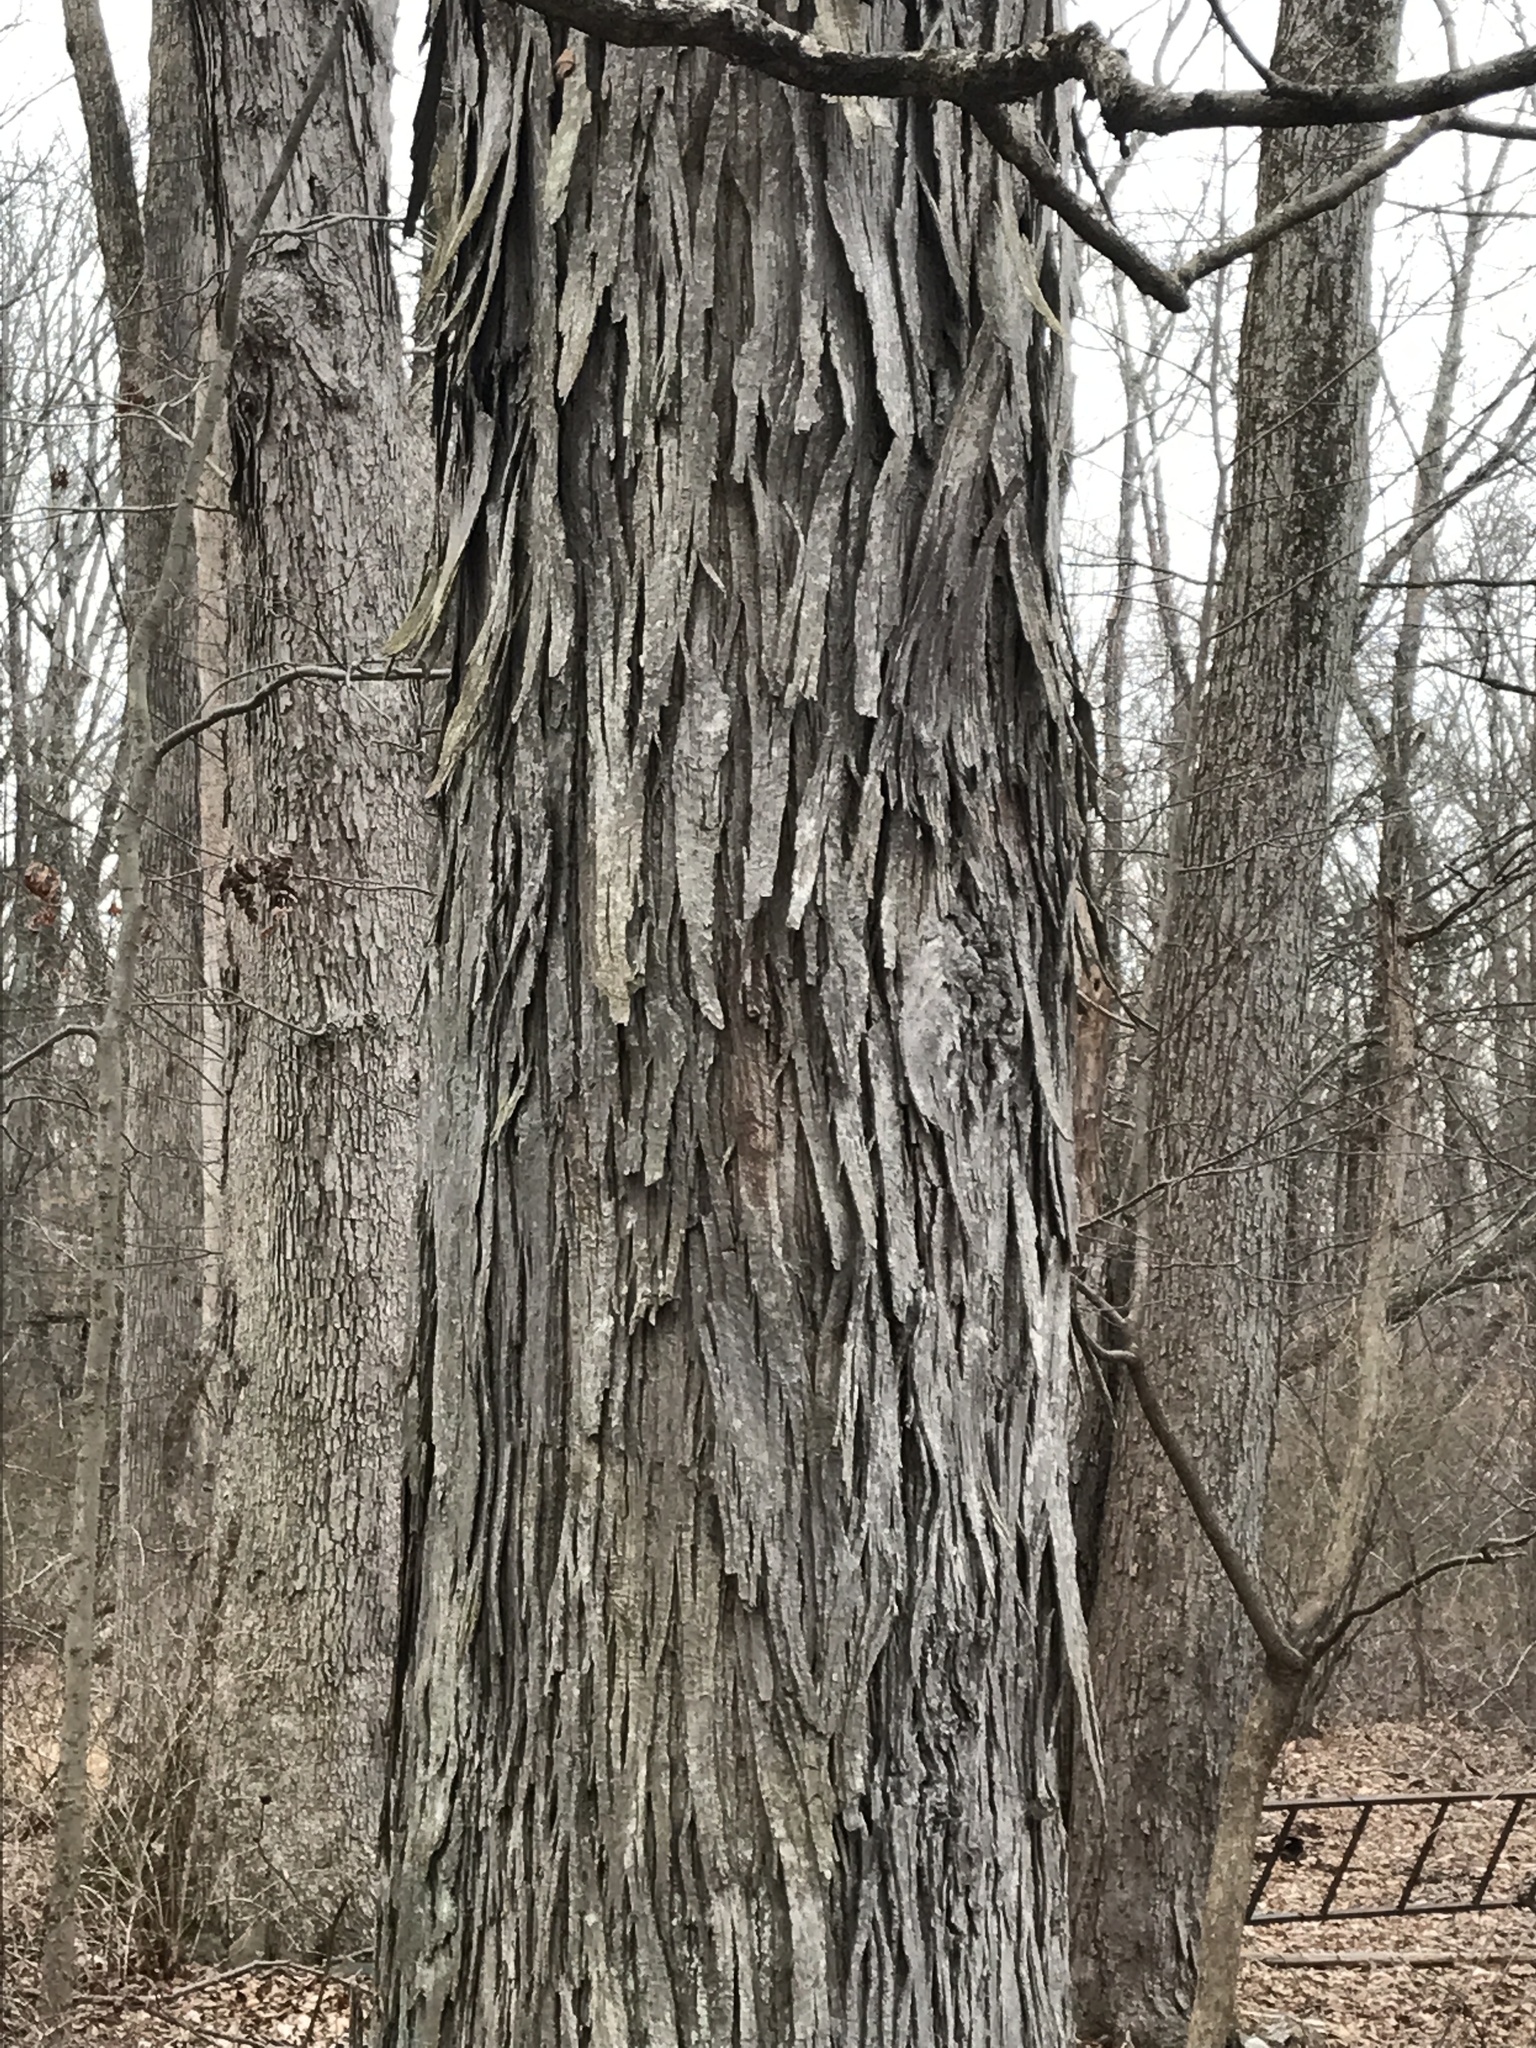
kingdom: Plantae
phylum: Tracheophyta
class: Magnoliopsida
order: Fagales
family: Juglandaceae
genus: Carya
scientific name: Carya ovata
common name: Shagbark hickory
